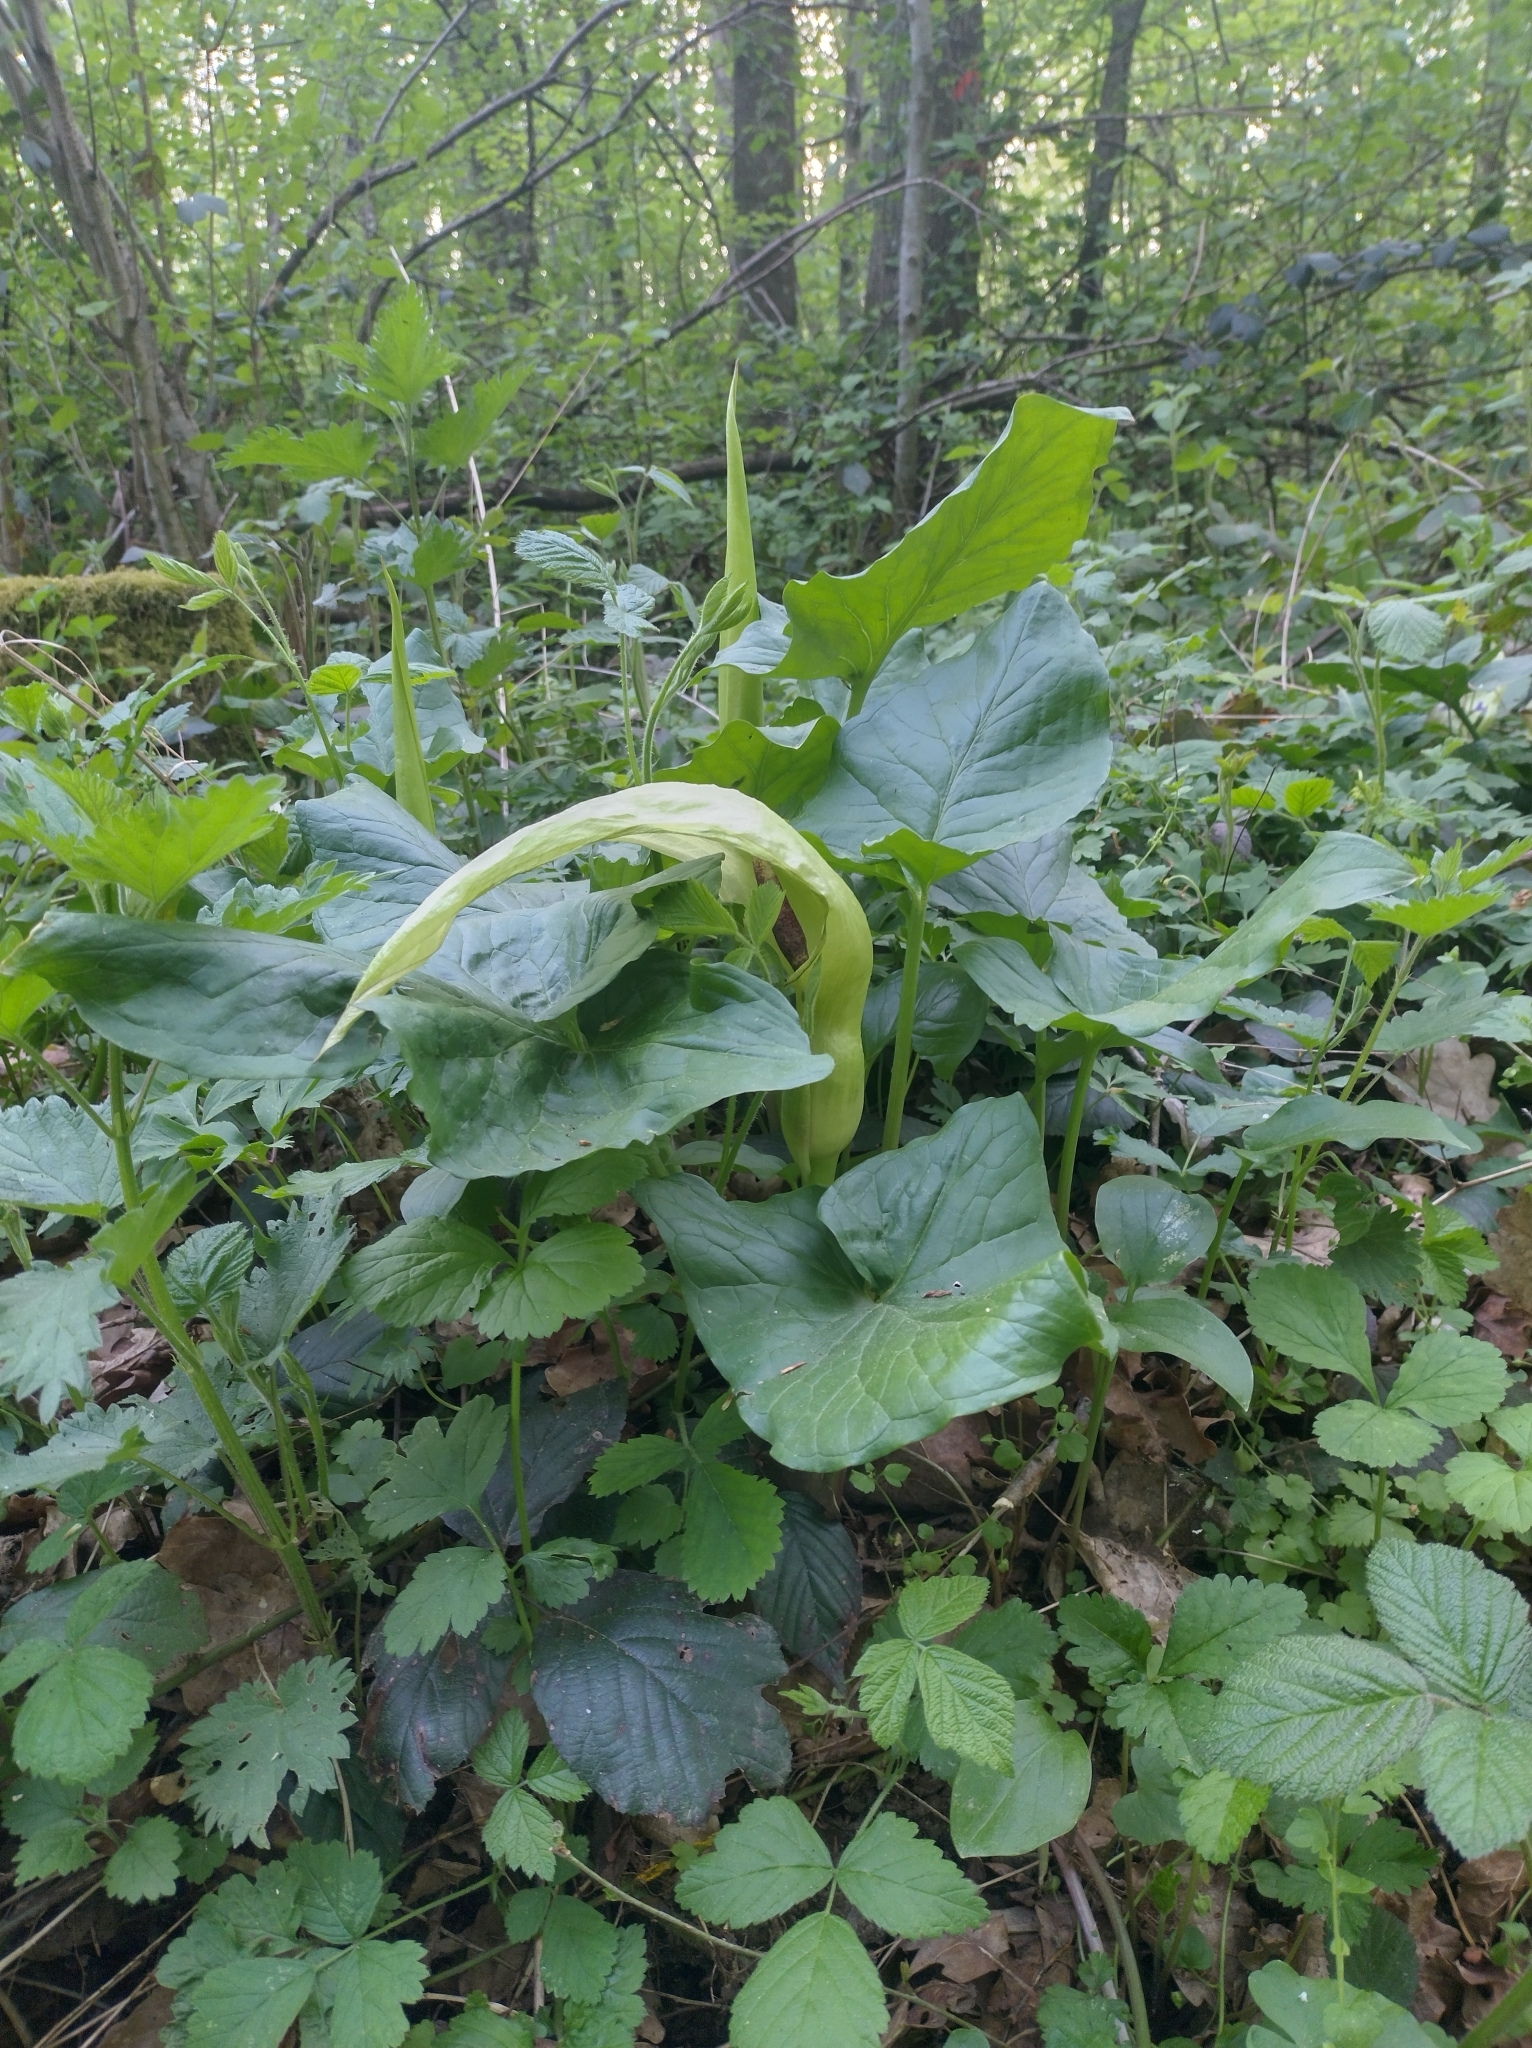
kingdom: Plantae
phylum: Tracheophyta
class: Liliopsida
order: Alismatales
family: Araceae
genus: Arum
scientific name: Arum maculatum
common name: Lords-and-ladies
